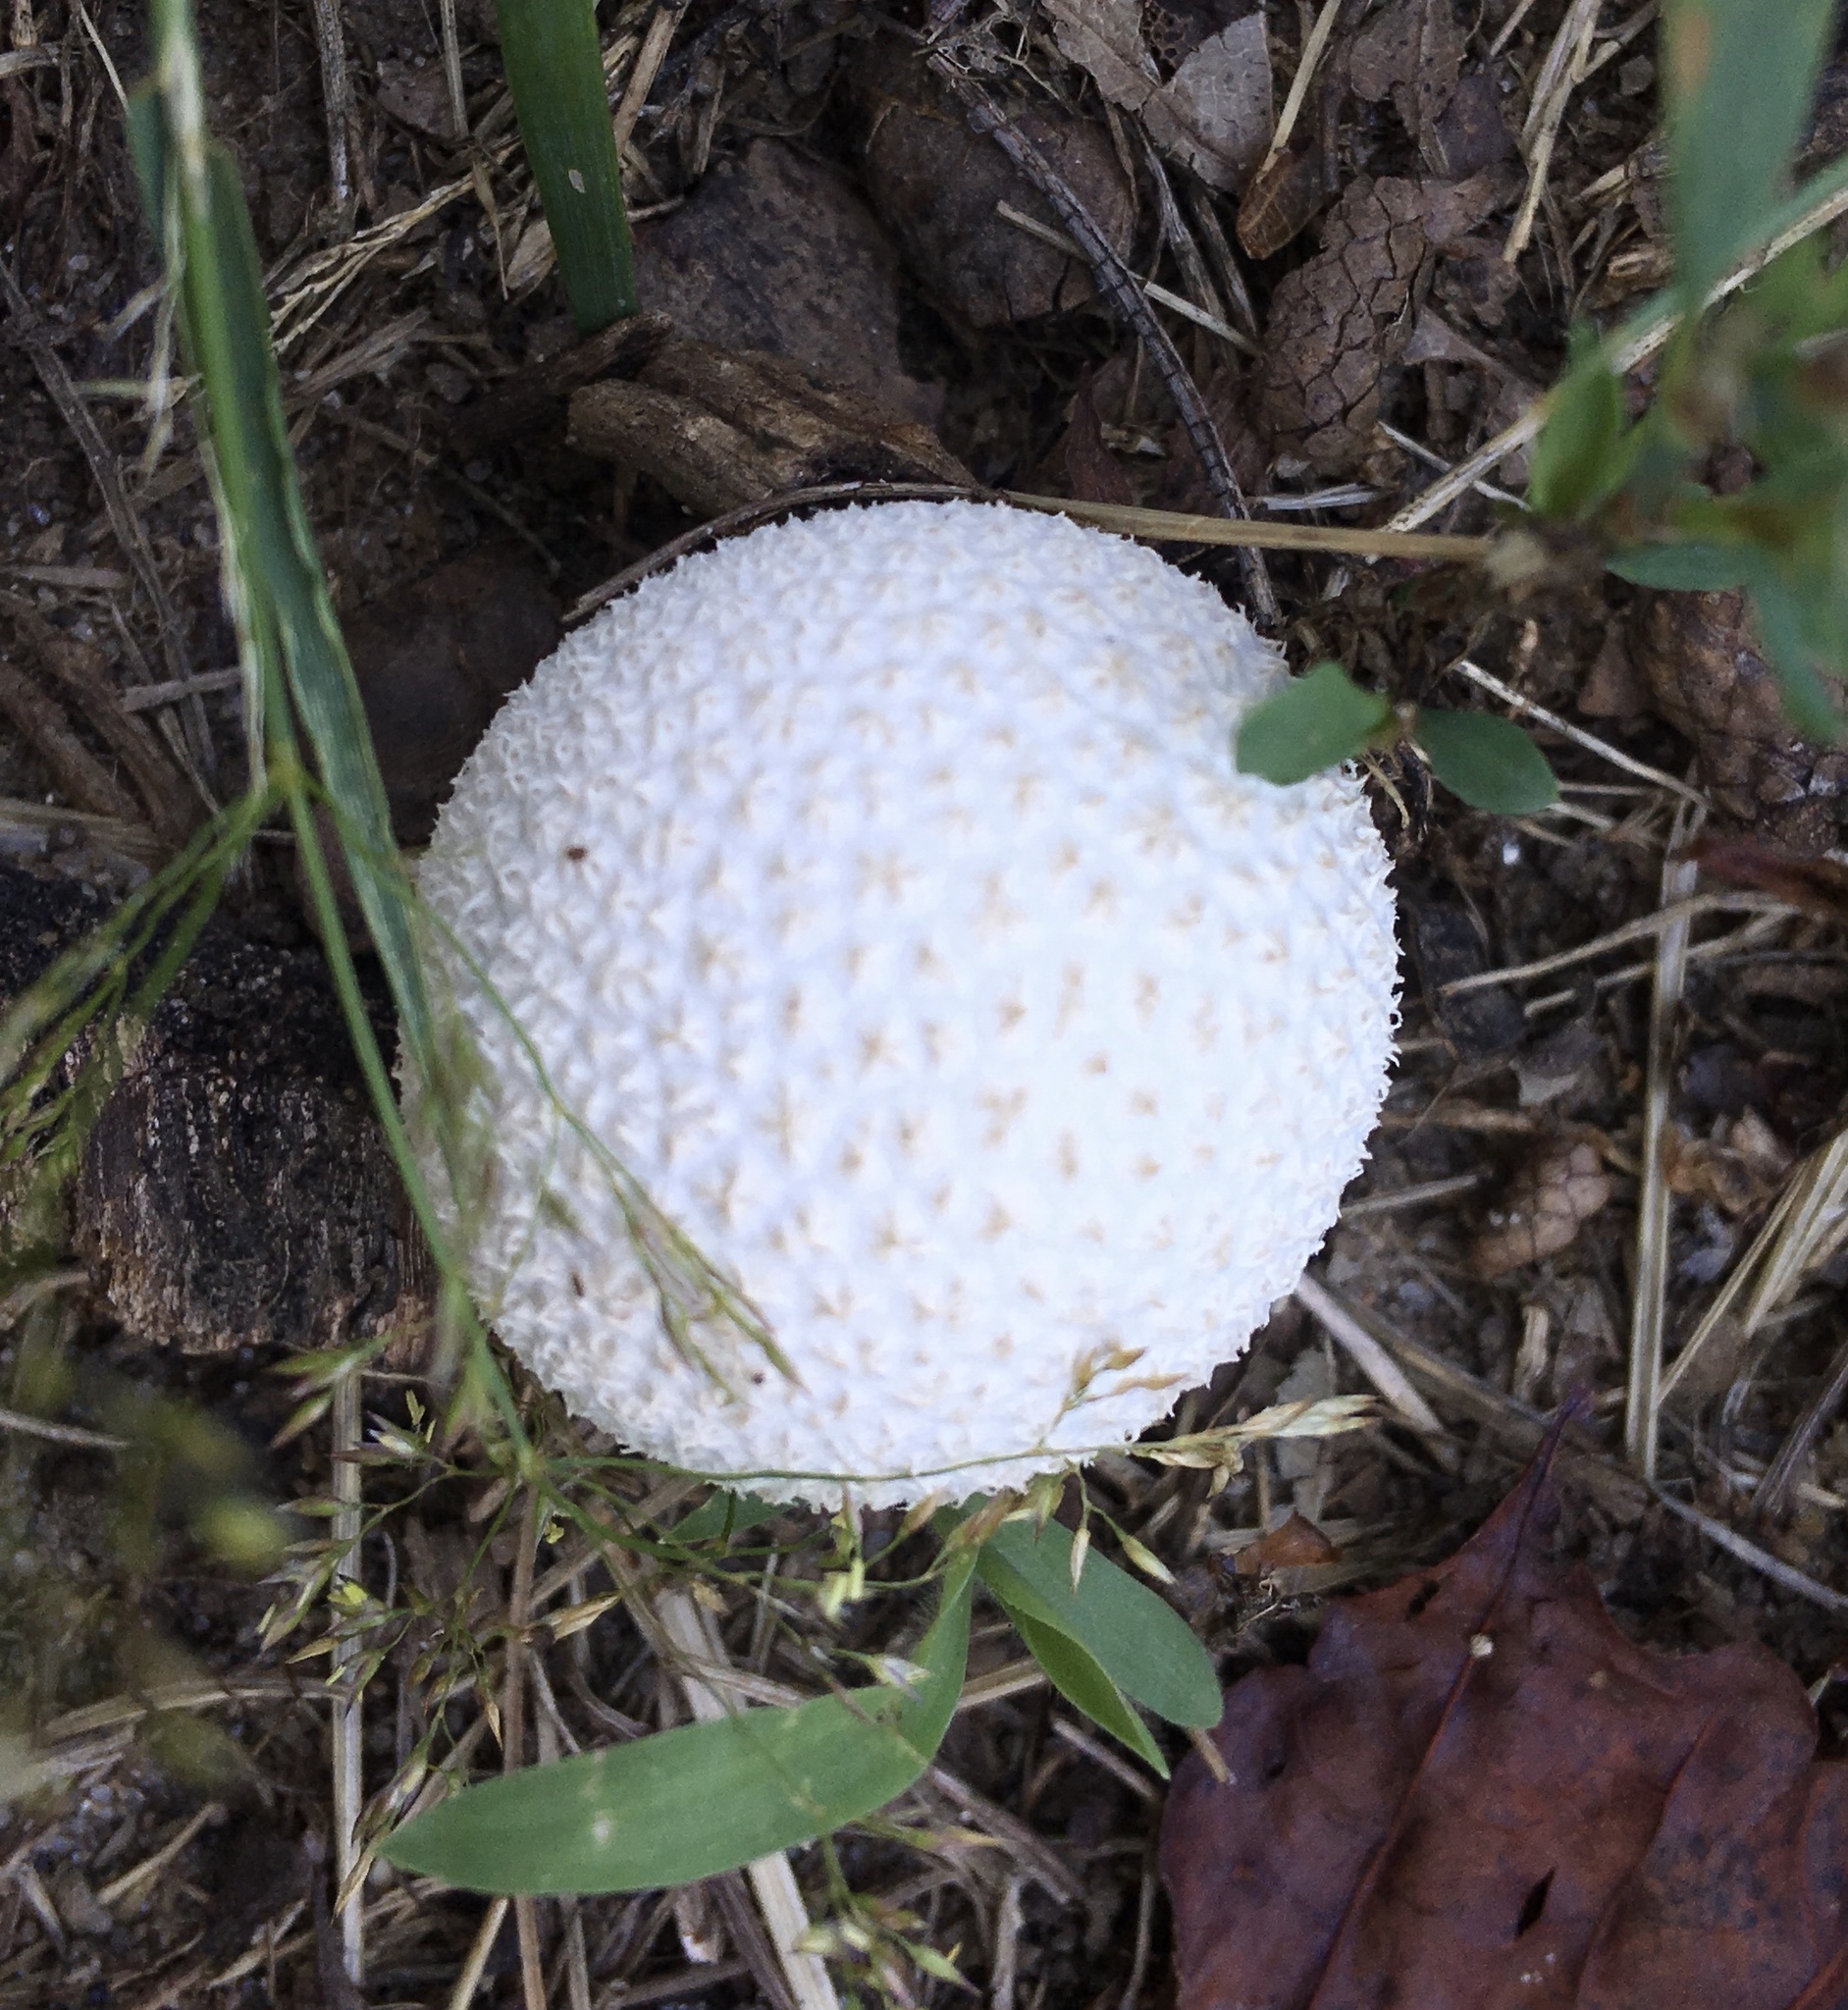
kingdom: Fungi
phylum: Basidiomycota
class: Agaricomycetes
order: Agaricales
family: Agaricaceae
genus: Lycoperdon
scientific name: Lycoperdon marginatum
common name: Peeling puffball
